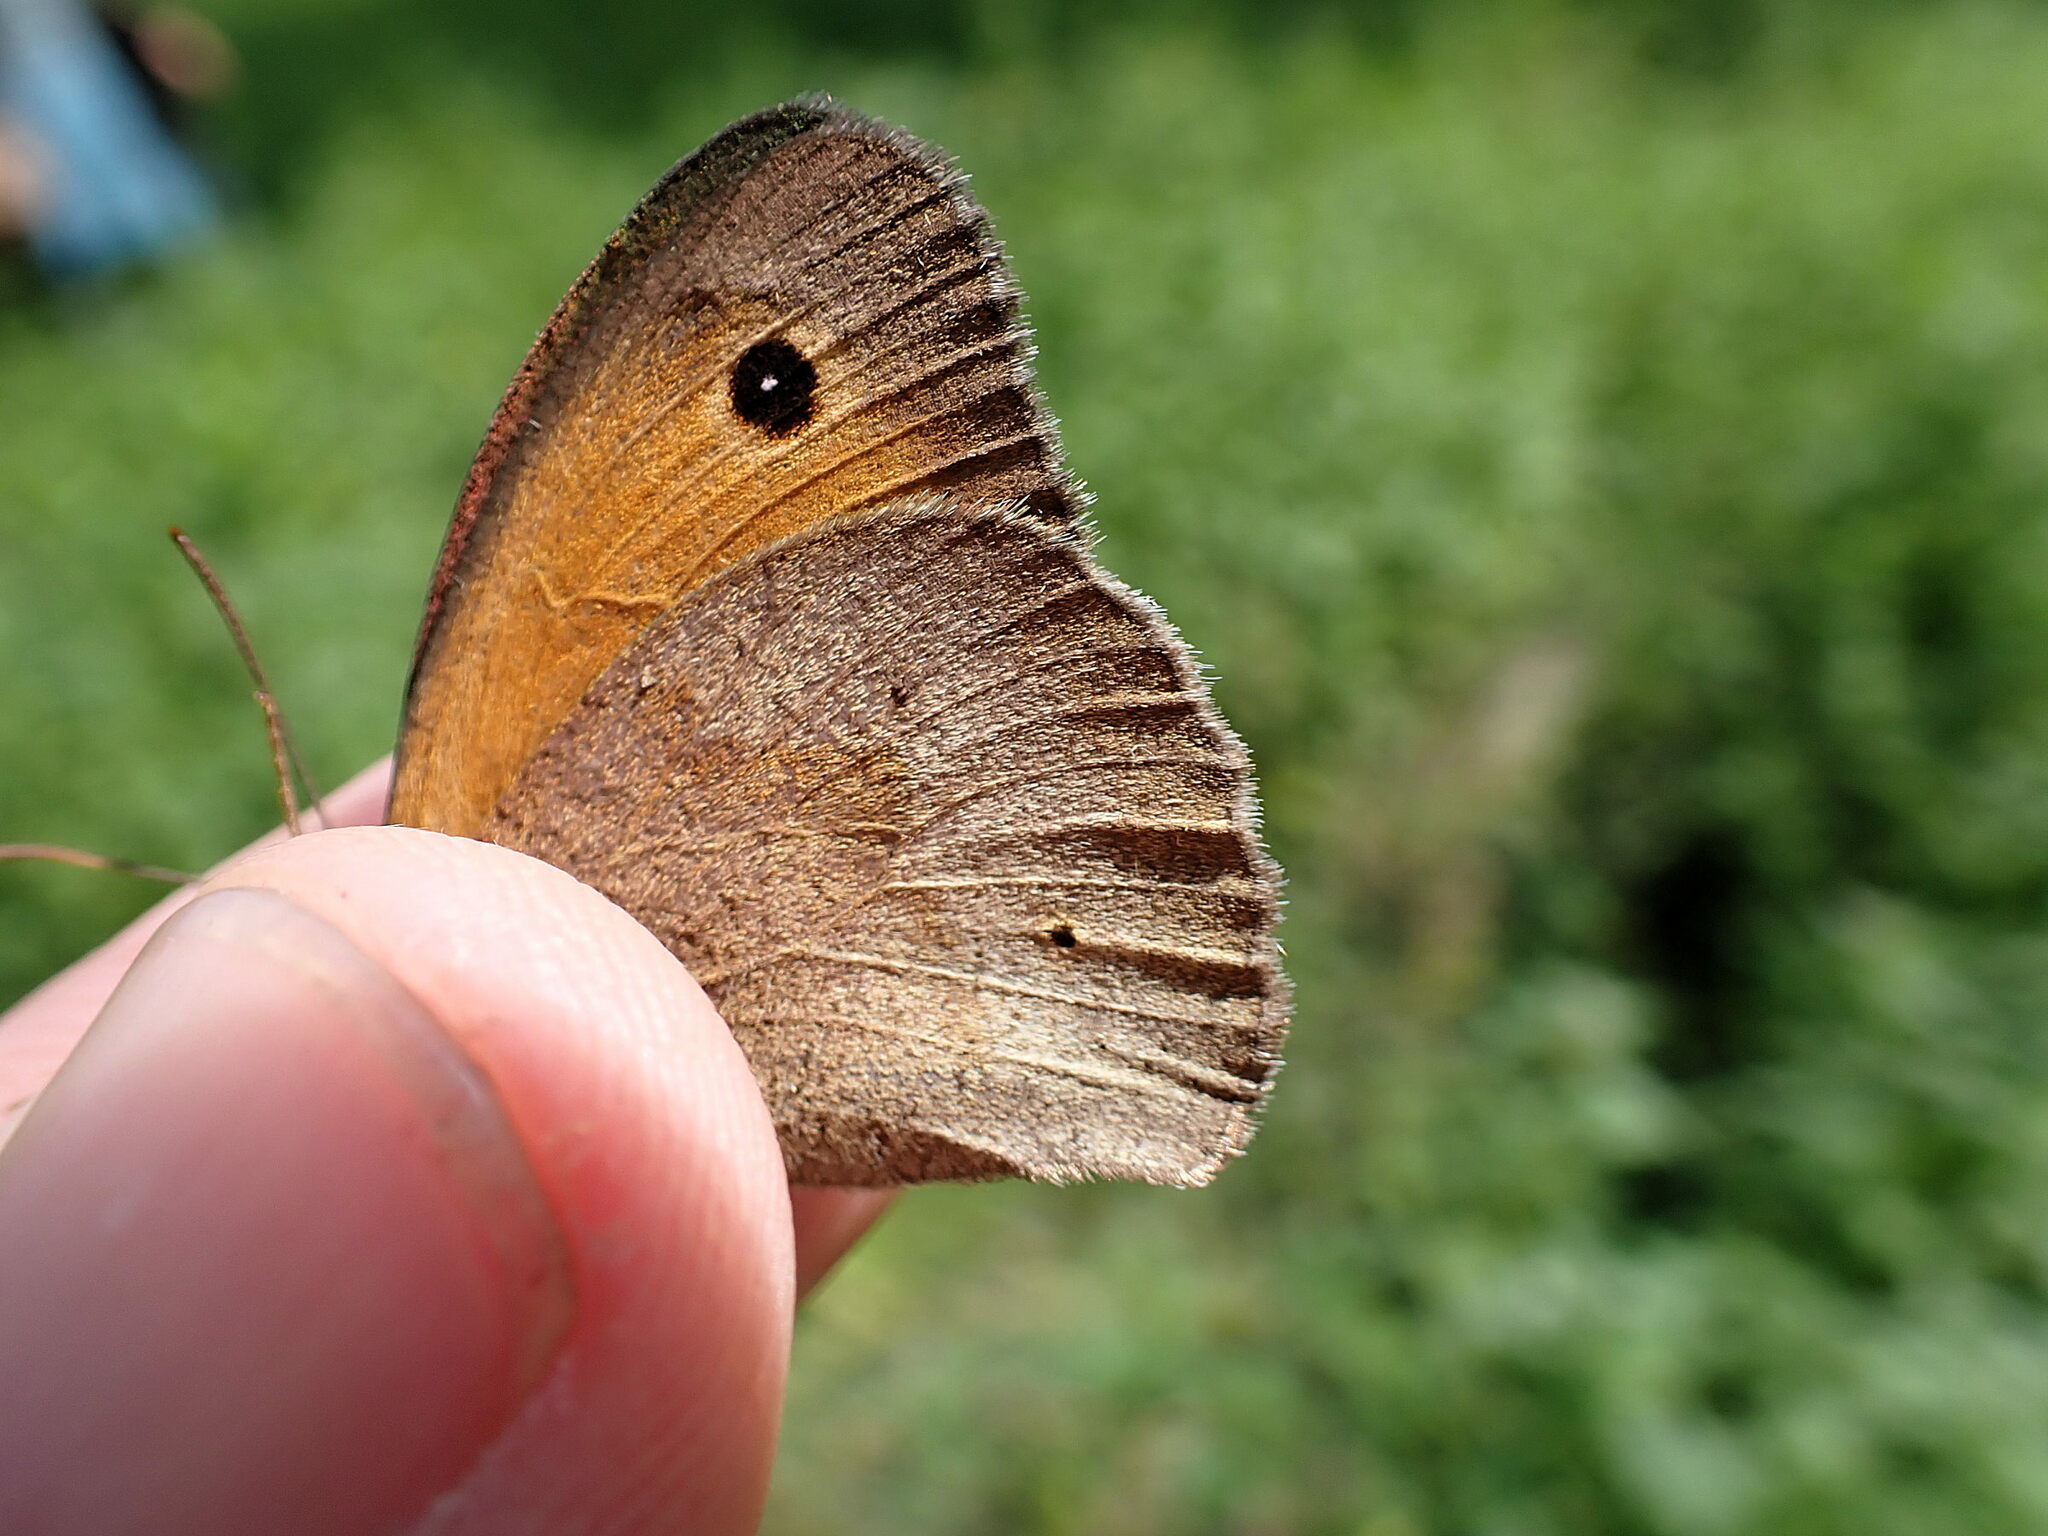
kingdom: Animalia
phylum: Arthropoda
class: Insecta
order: Lepidoptera
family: Nymphalidae
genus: Maniola
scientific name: Maniola jurtina
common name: Meadow brown
